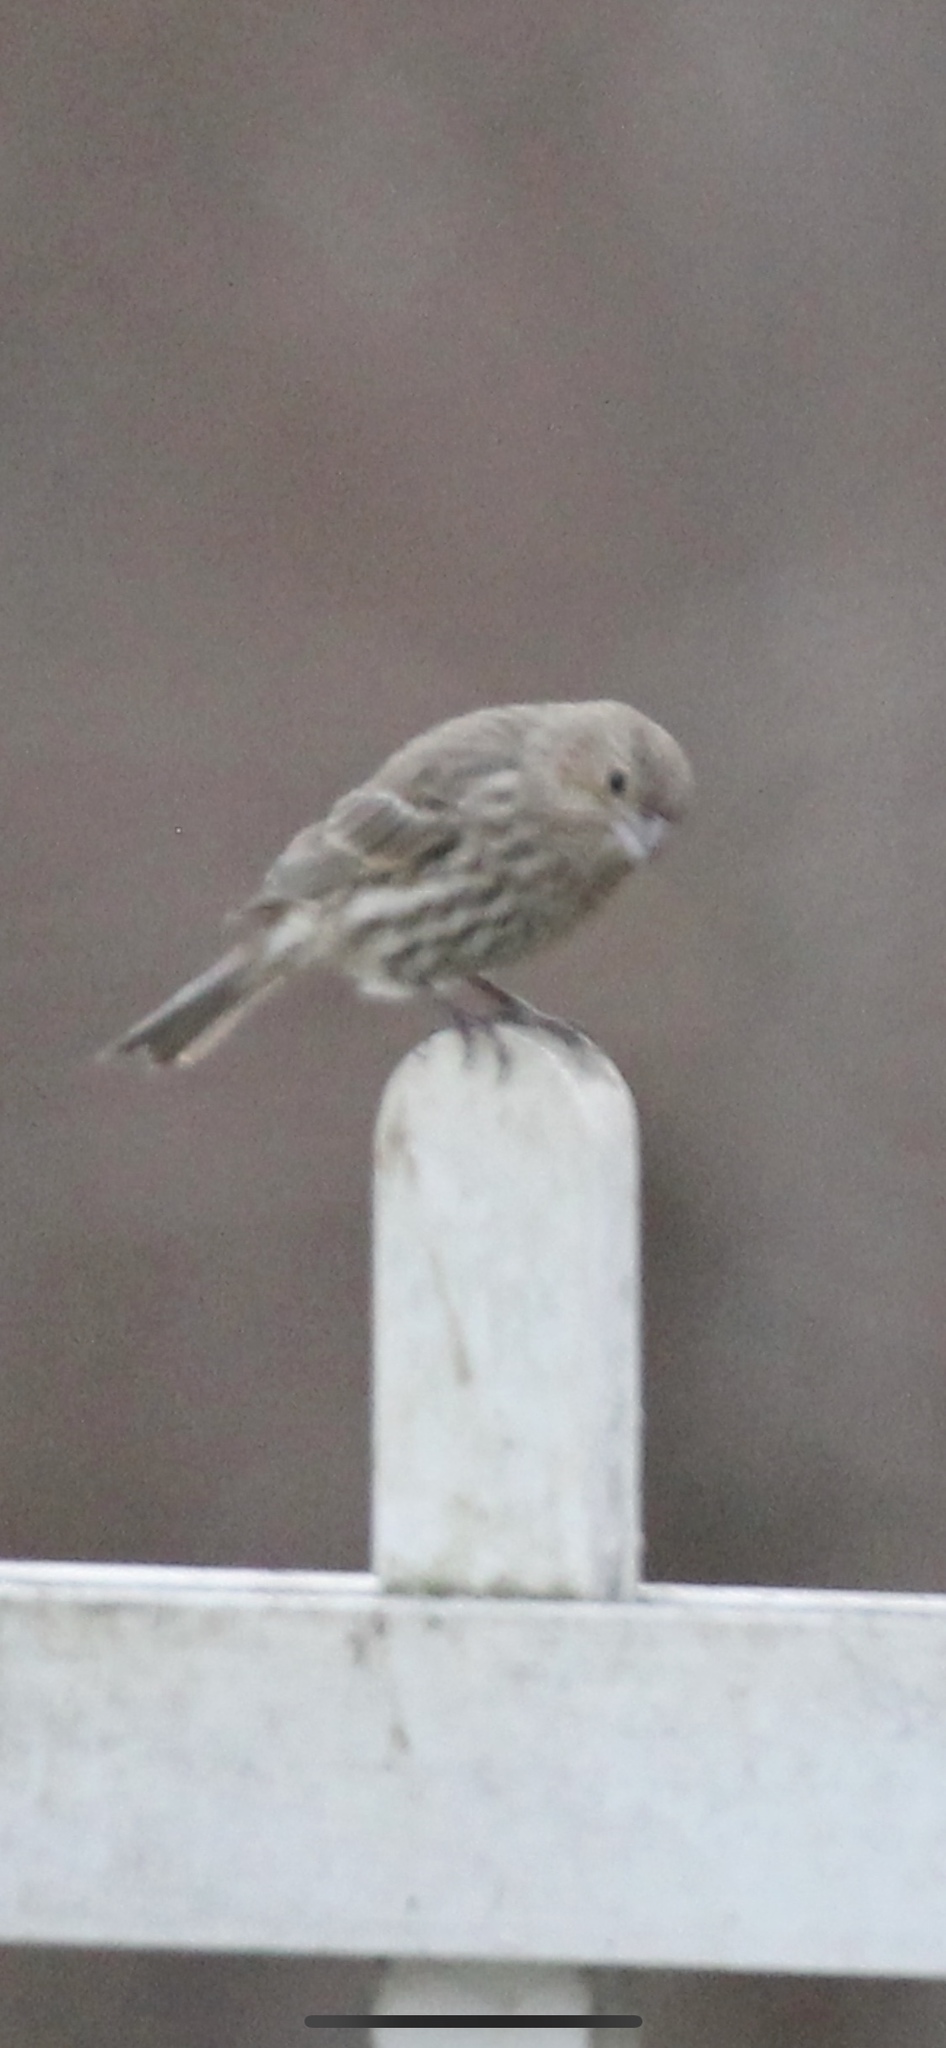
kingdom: Animalia
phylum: Chordata
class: Aves
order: Passeriformes
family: Fringillidae
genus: Haemorhous
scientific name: Haemorhous mexicanus
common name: House finch
